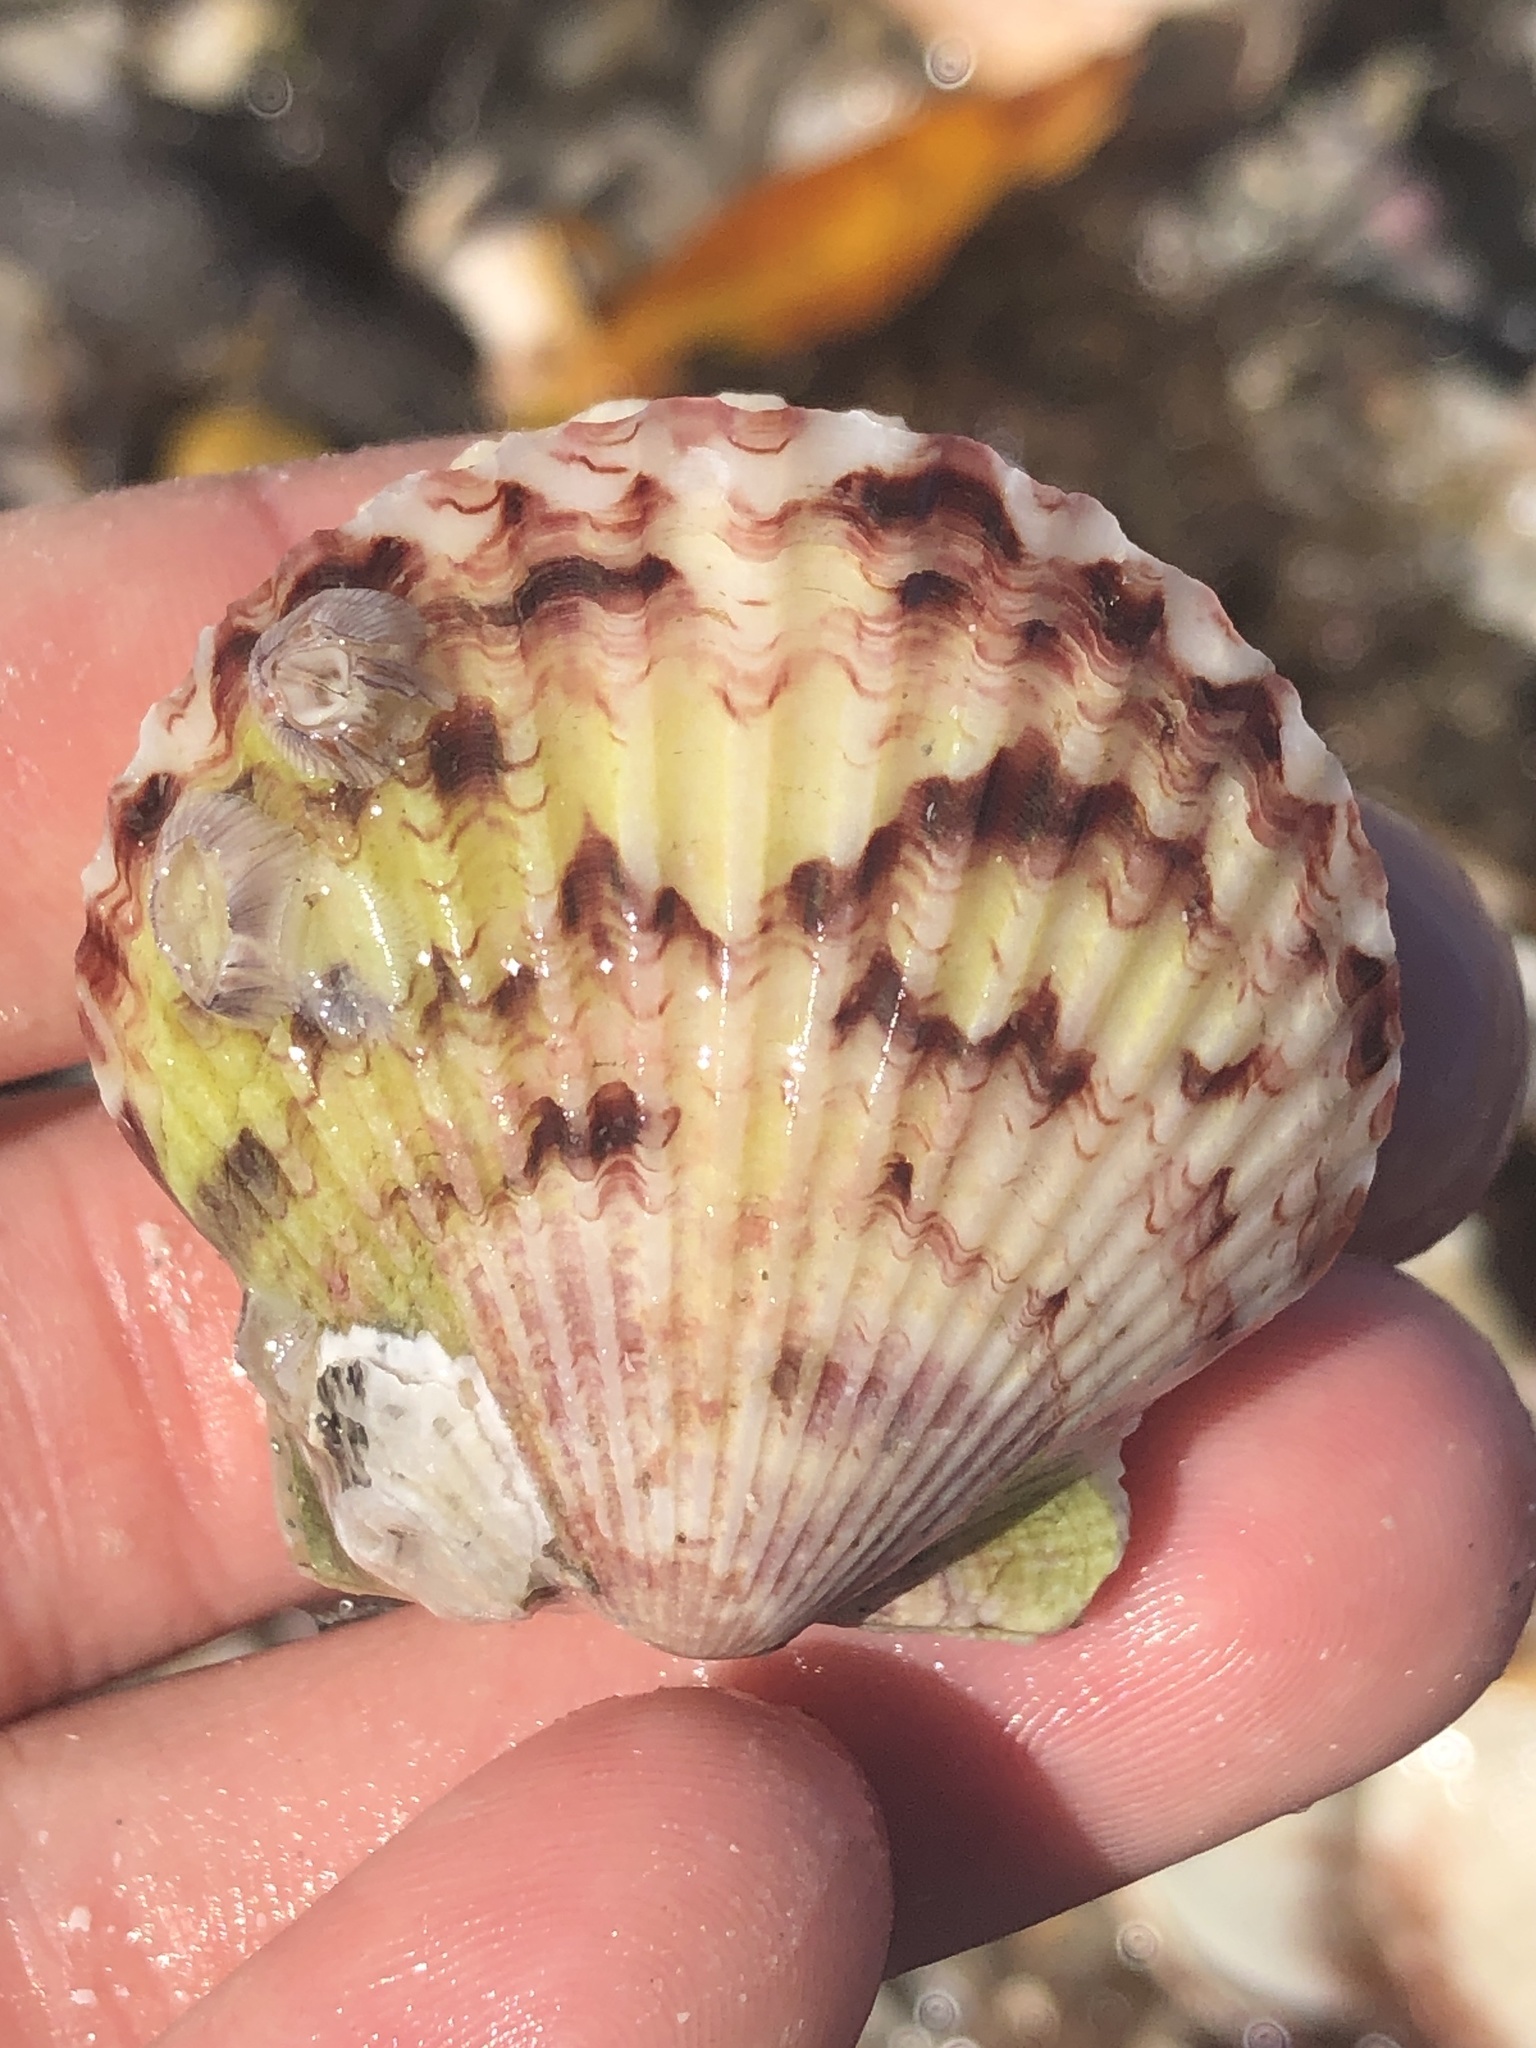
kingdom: Animalia
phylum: Mollusca
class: Bivalvia
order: Pectinida
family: Pectinidae
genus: Argopecten
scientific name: Argopecten gibbus
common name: Atlantic calico scallop
